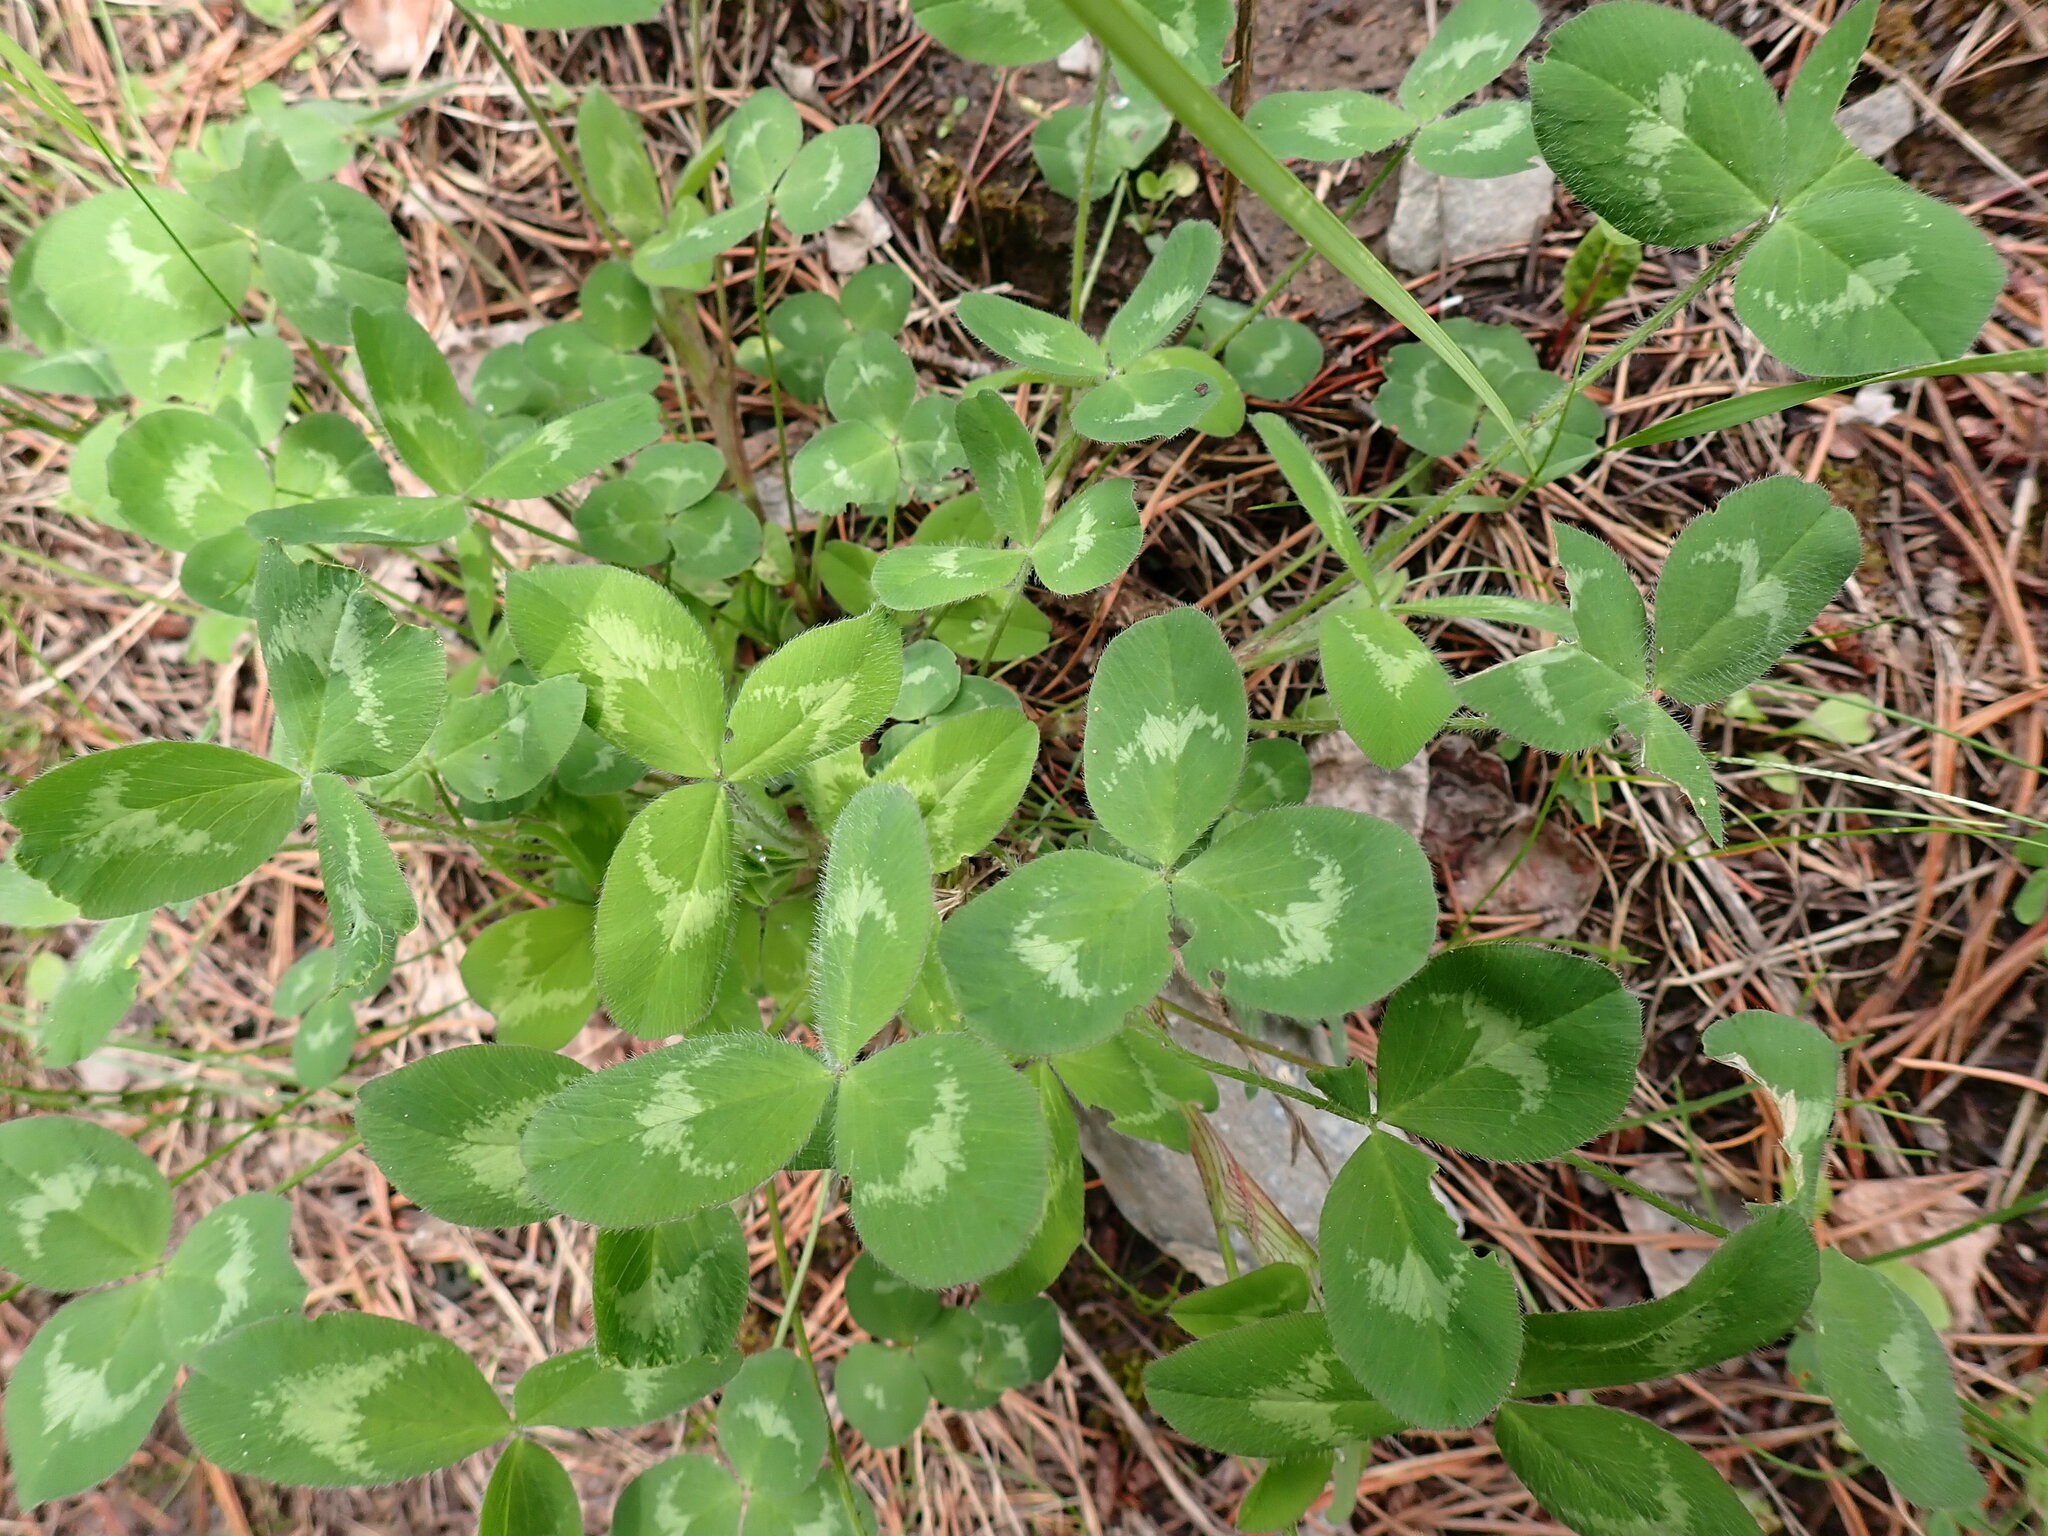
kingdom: Plantae
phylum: Tracheophyta
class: Magnoliopsida
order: Fabales
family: Fabaceae
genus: Trifolium
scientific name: Trifolium pratense
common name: Red clover
